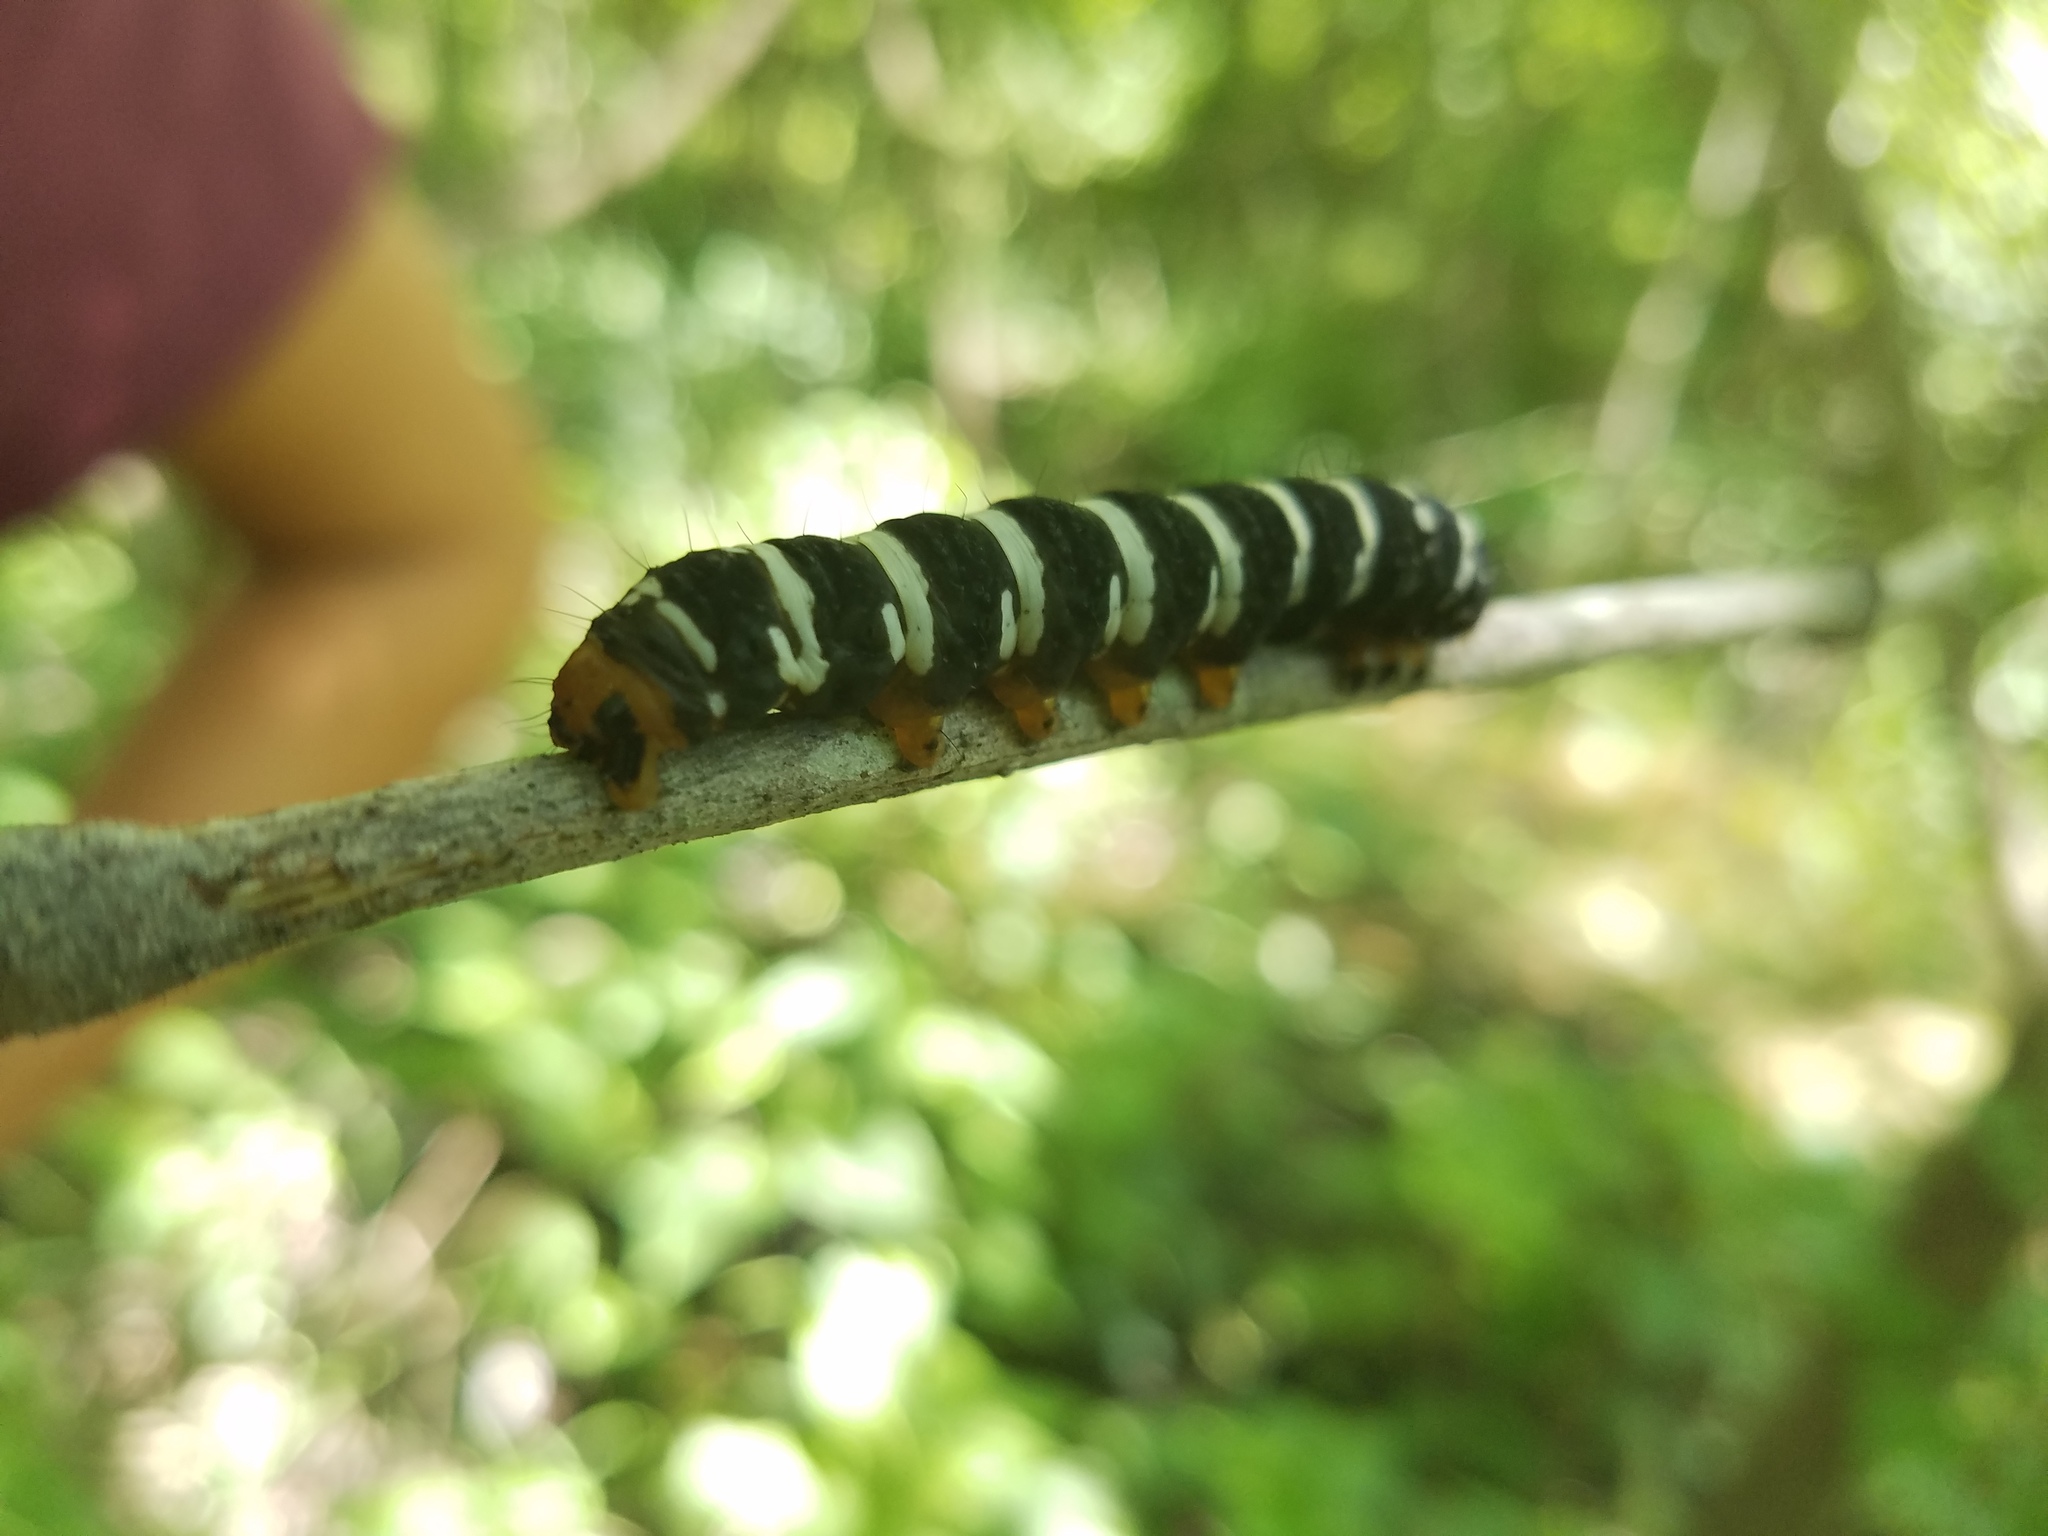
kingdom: Animalia
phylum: Arthropoda
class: Insecta
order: Lepidoptera
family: Noctuidae
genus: Xanthopastis
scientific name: Xanthopastis regnatrix
